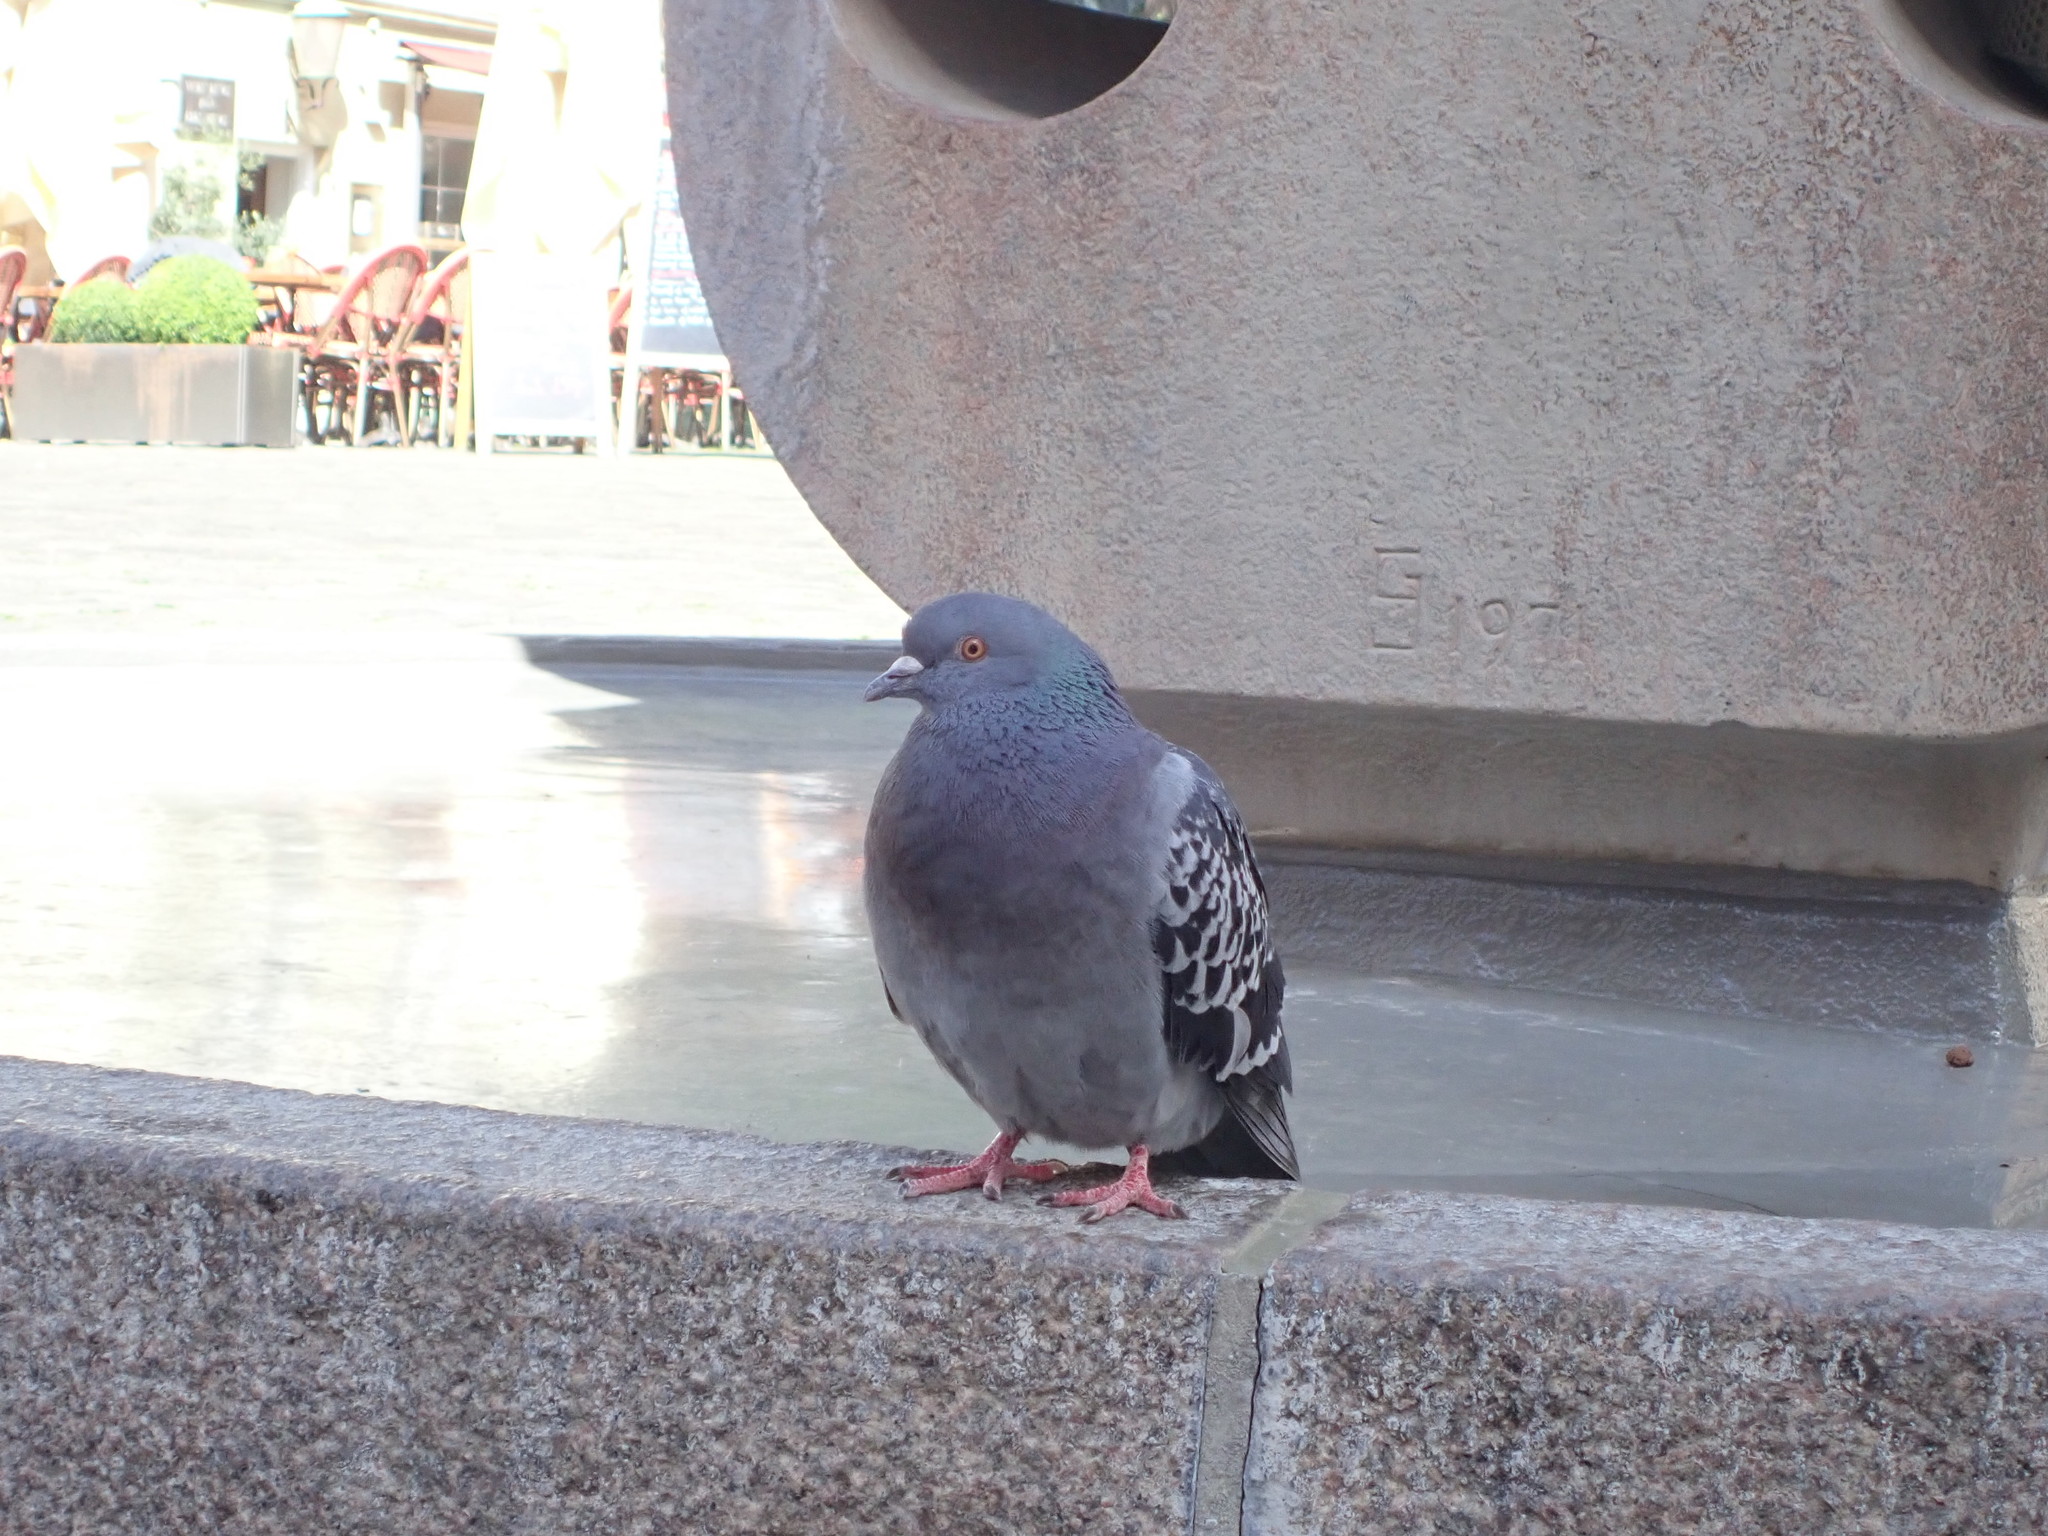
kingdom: Animalia
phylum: Chordata
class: Aves
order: Columbiformes
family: Columbidae
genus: Columba
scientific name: Columba livia
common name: Rock pigeon
